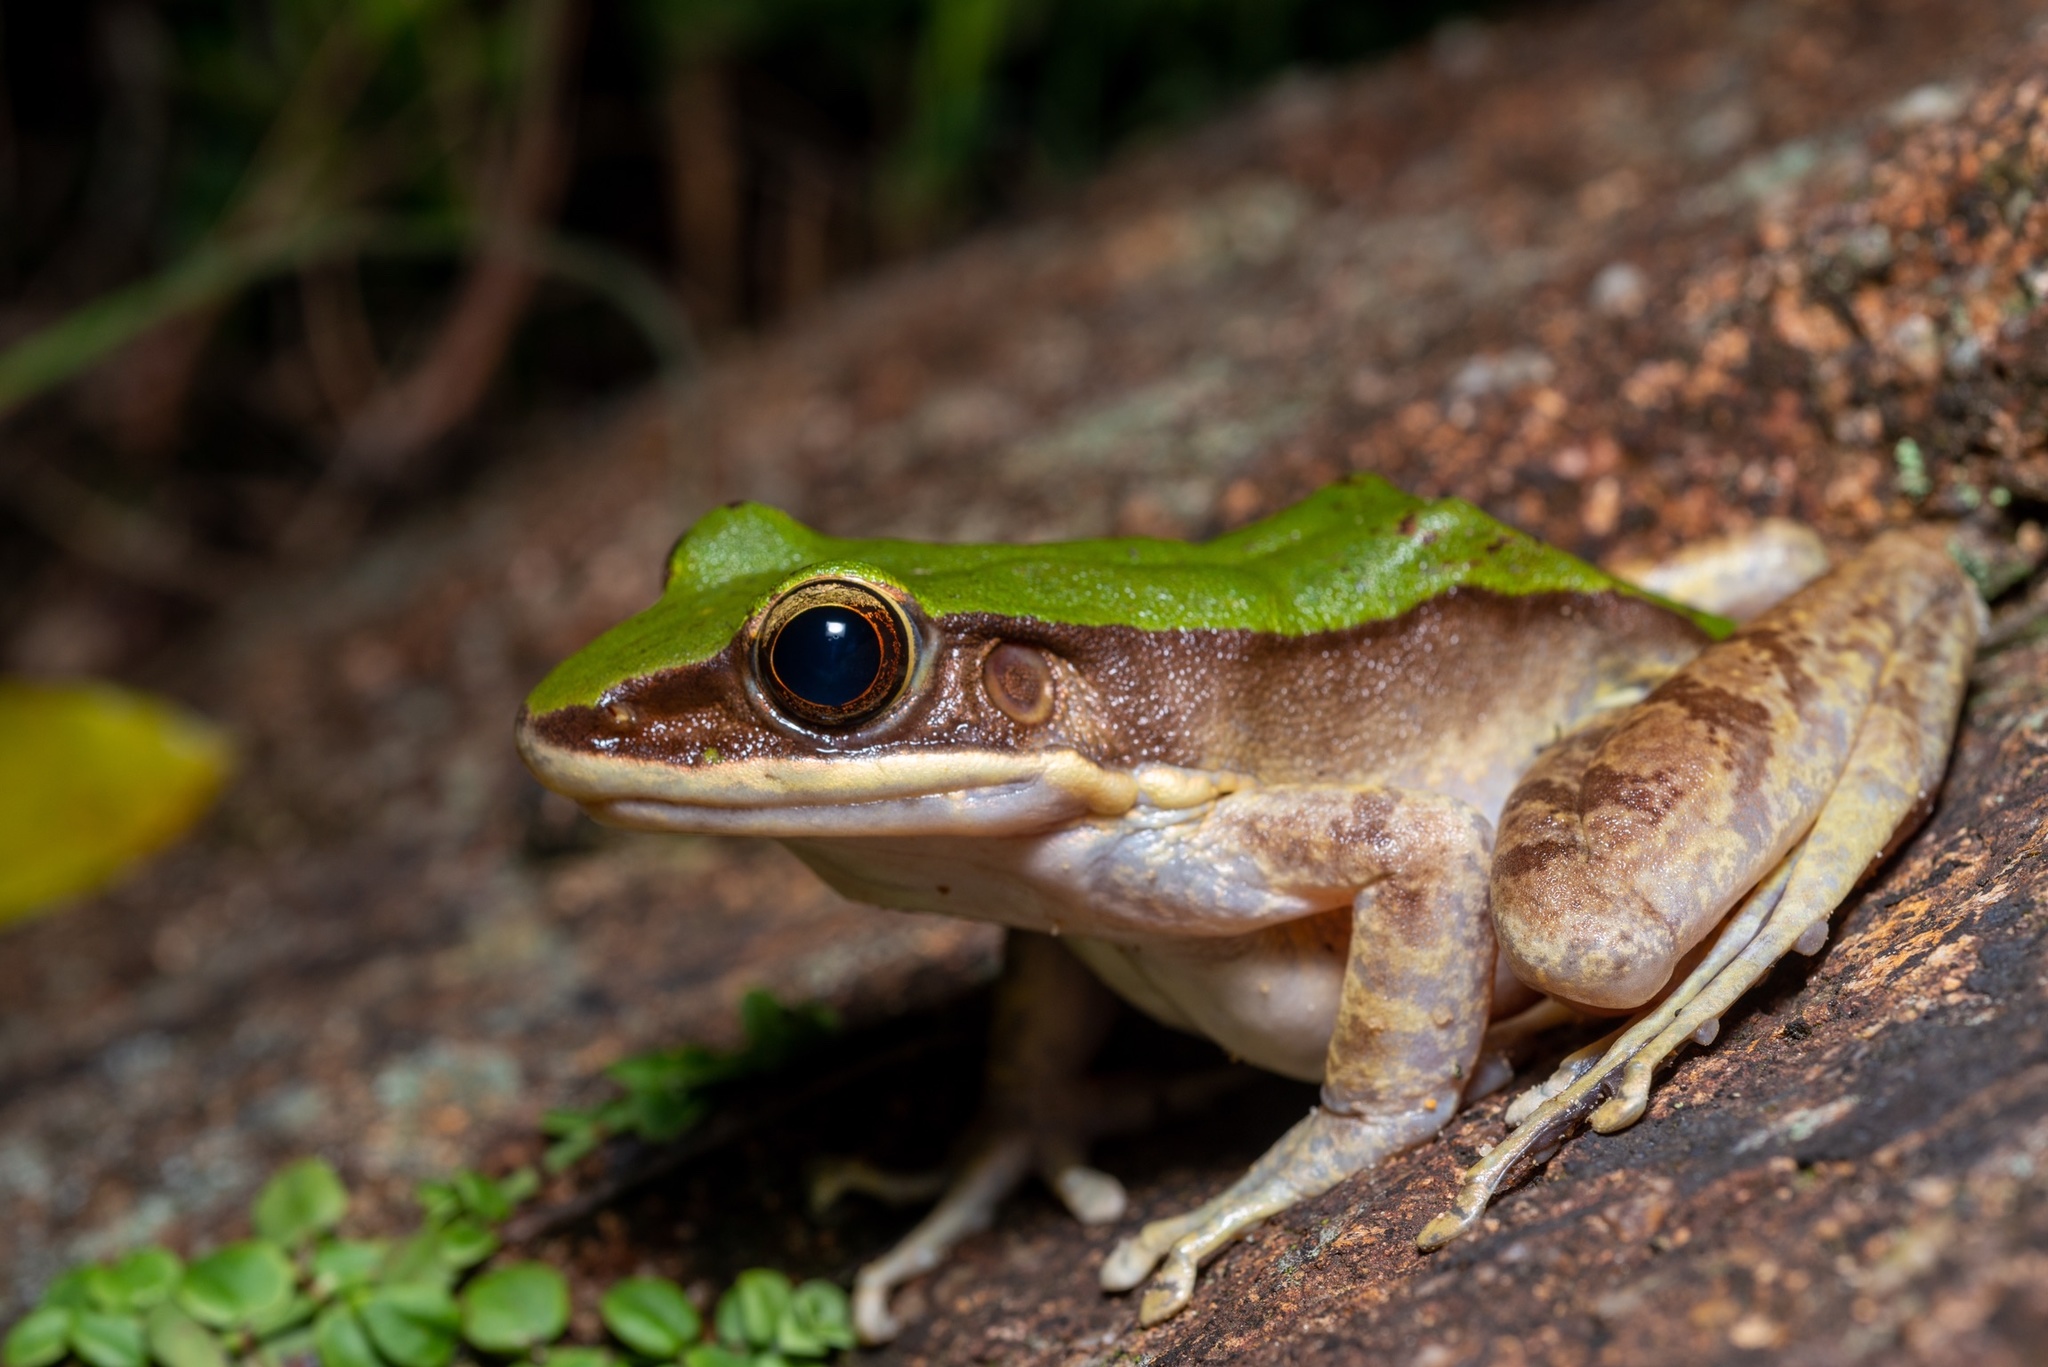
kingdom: Animalia
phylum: Chordata
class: Amphibia
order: Anura
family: Ranidae
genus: Odorrana
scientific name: Odorrana graminea
